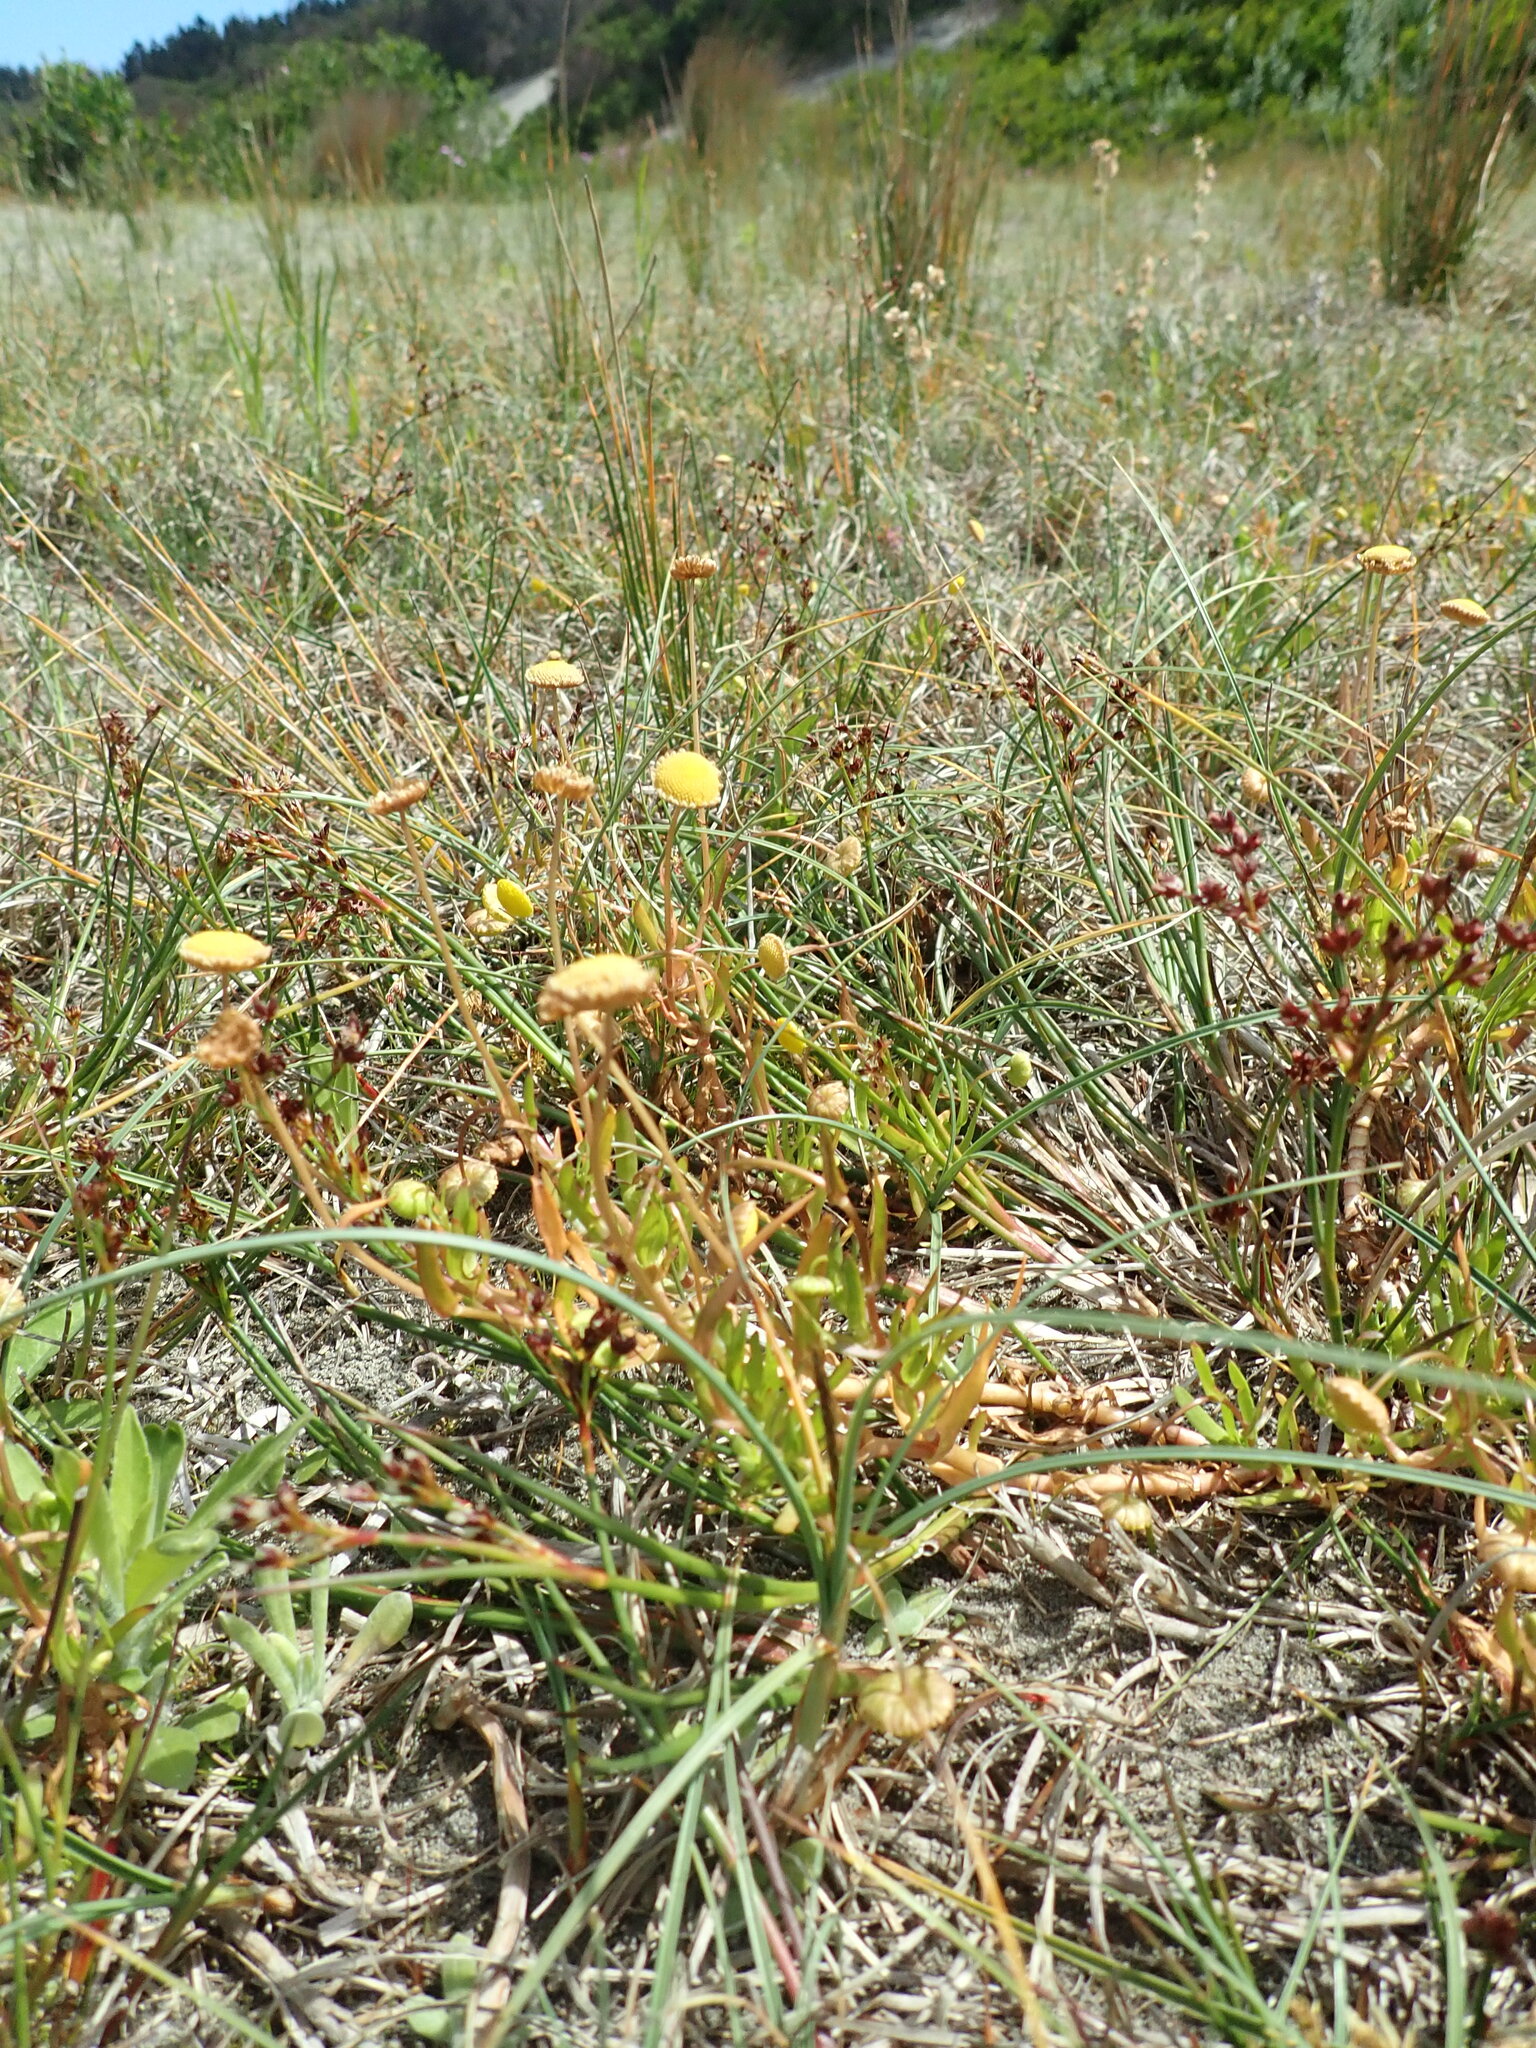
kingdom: Plantae
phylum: Tracheophyta
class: Magnoliopsida
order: Asterales
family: Asteraceae
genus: Cotula
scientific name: Cotula coronopifolia
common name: Buttonweed
